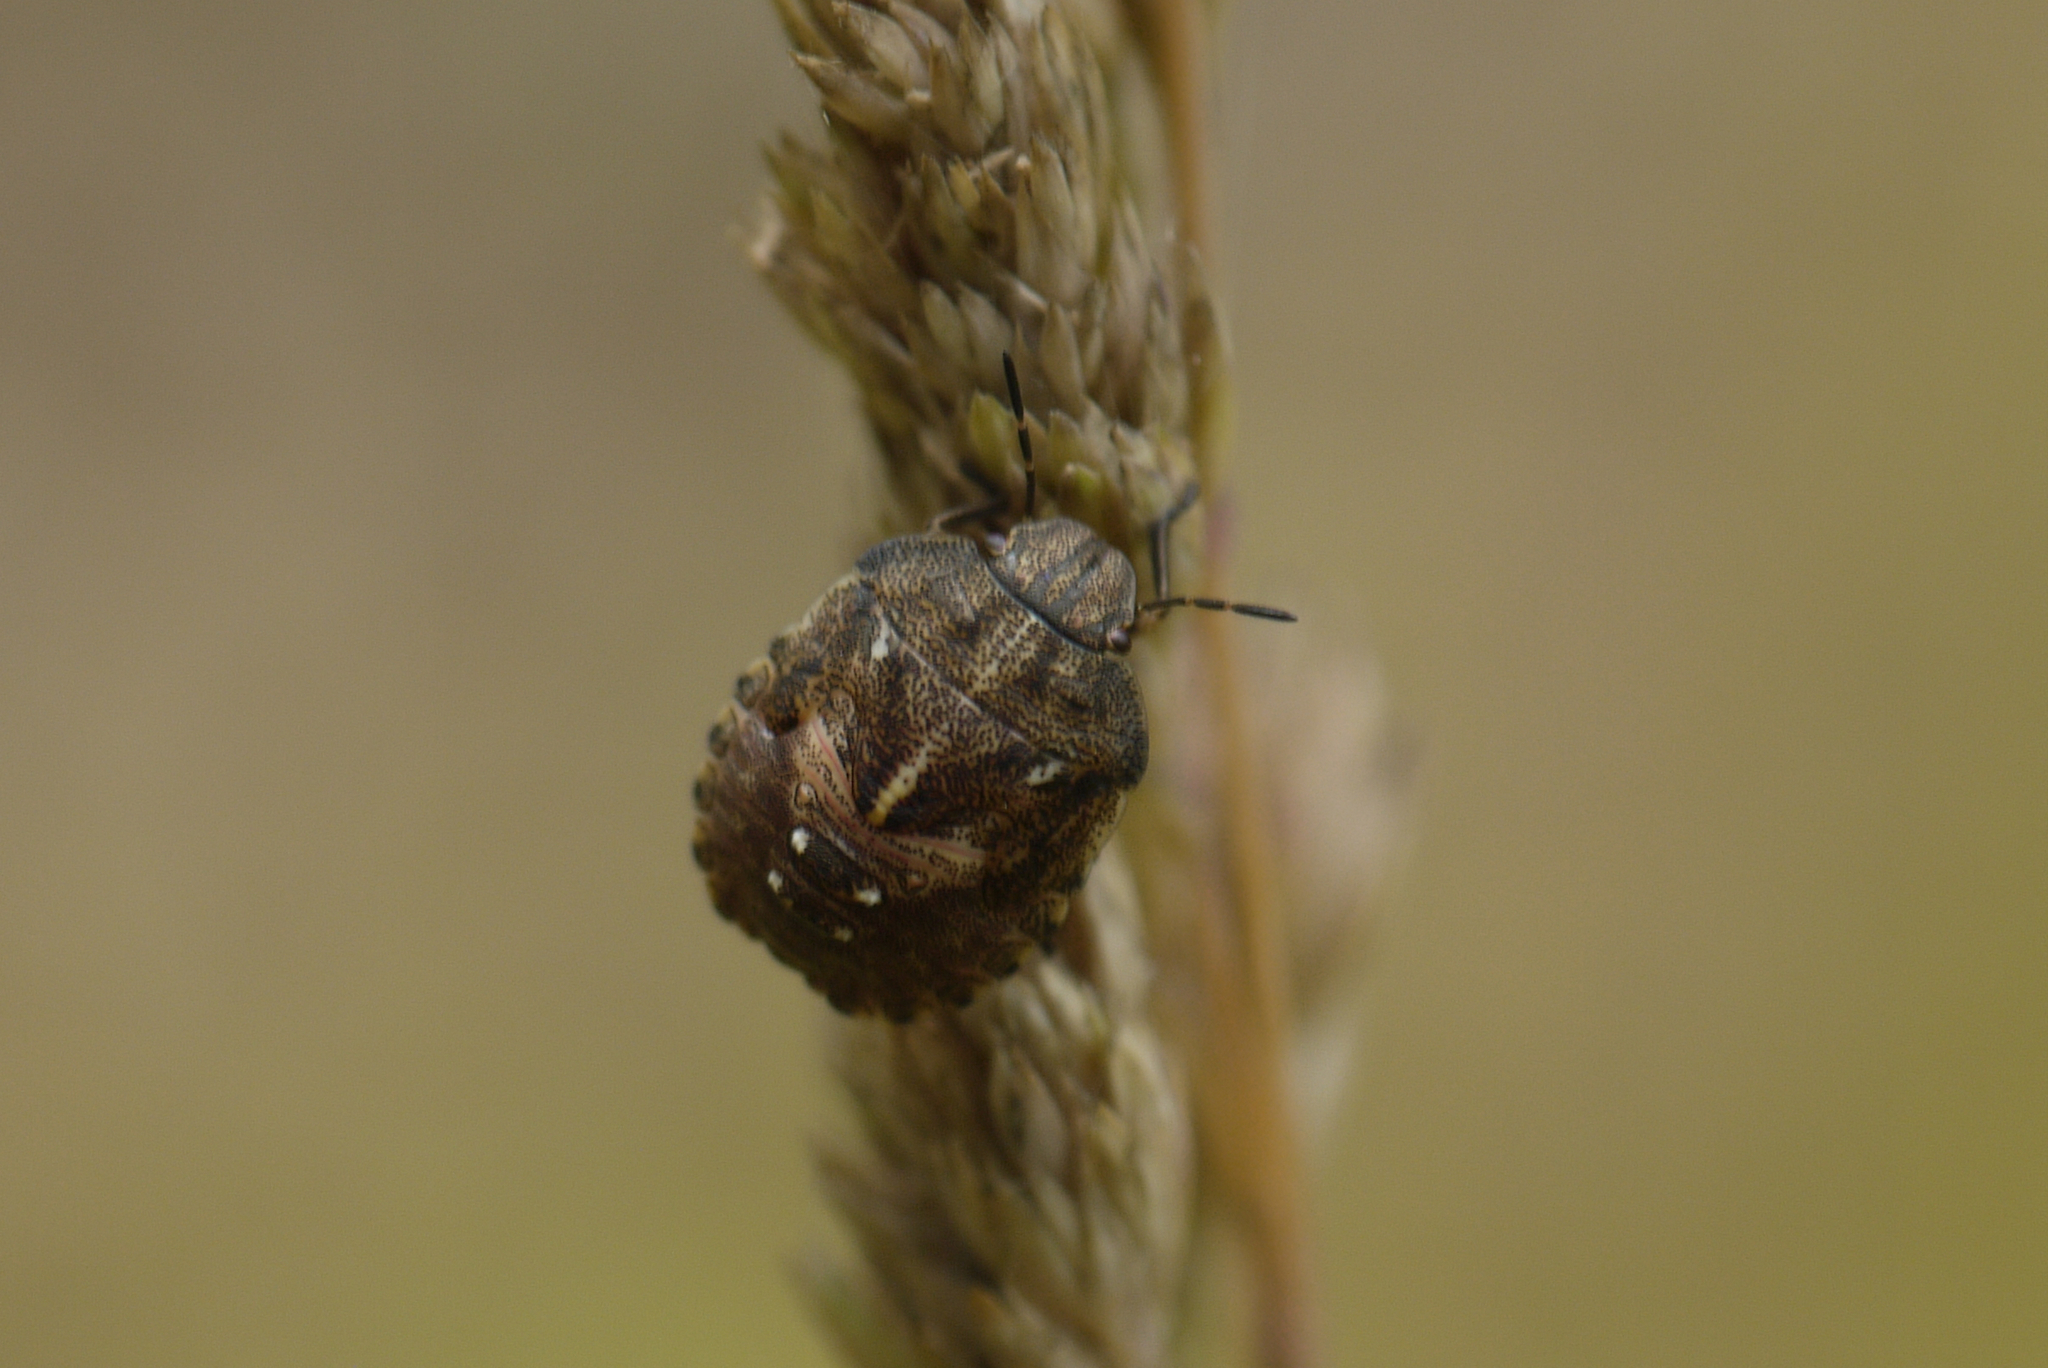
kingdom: Animalia
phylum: Arthropoda
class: Insecta
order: Hemiptera
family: Scutelleridae
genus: Eurygaster
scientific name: Eurygaster testudinaria
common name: Tortoise bug
